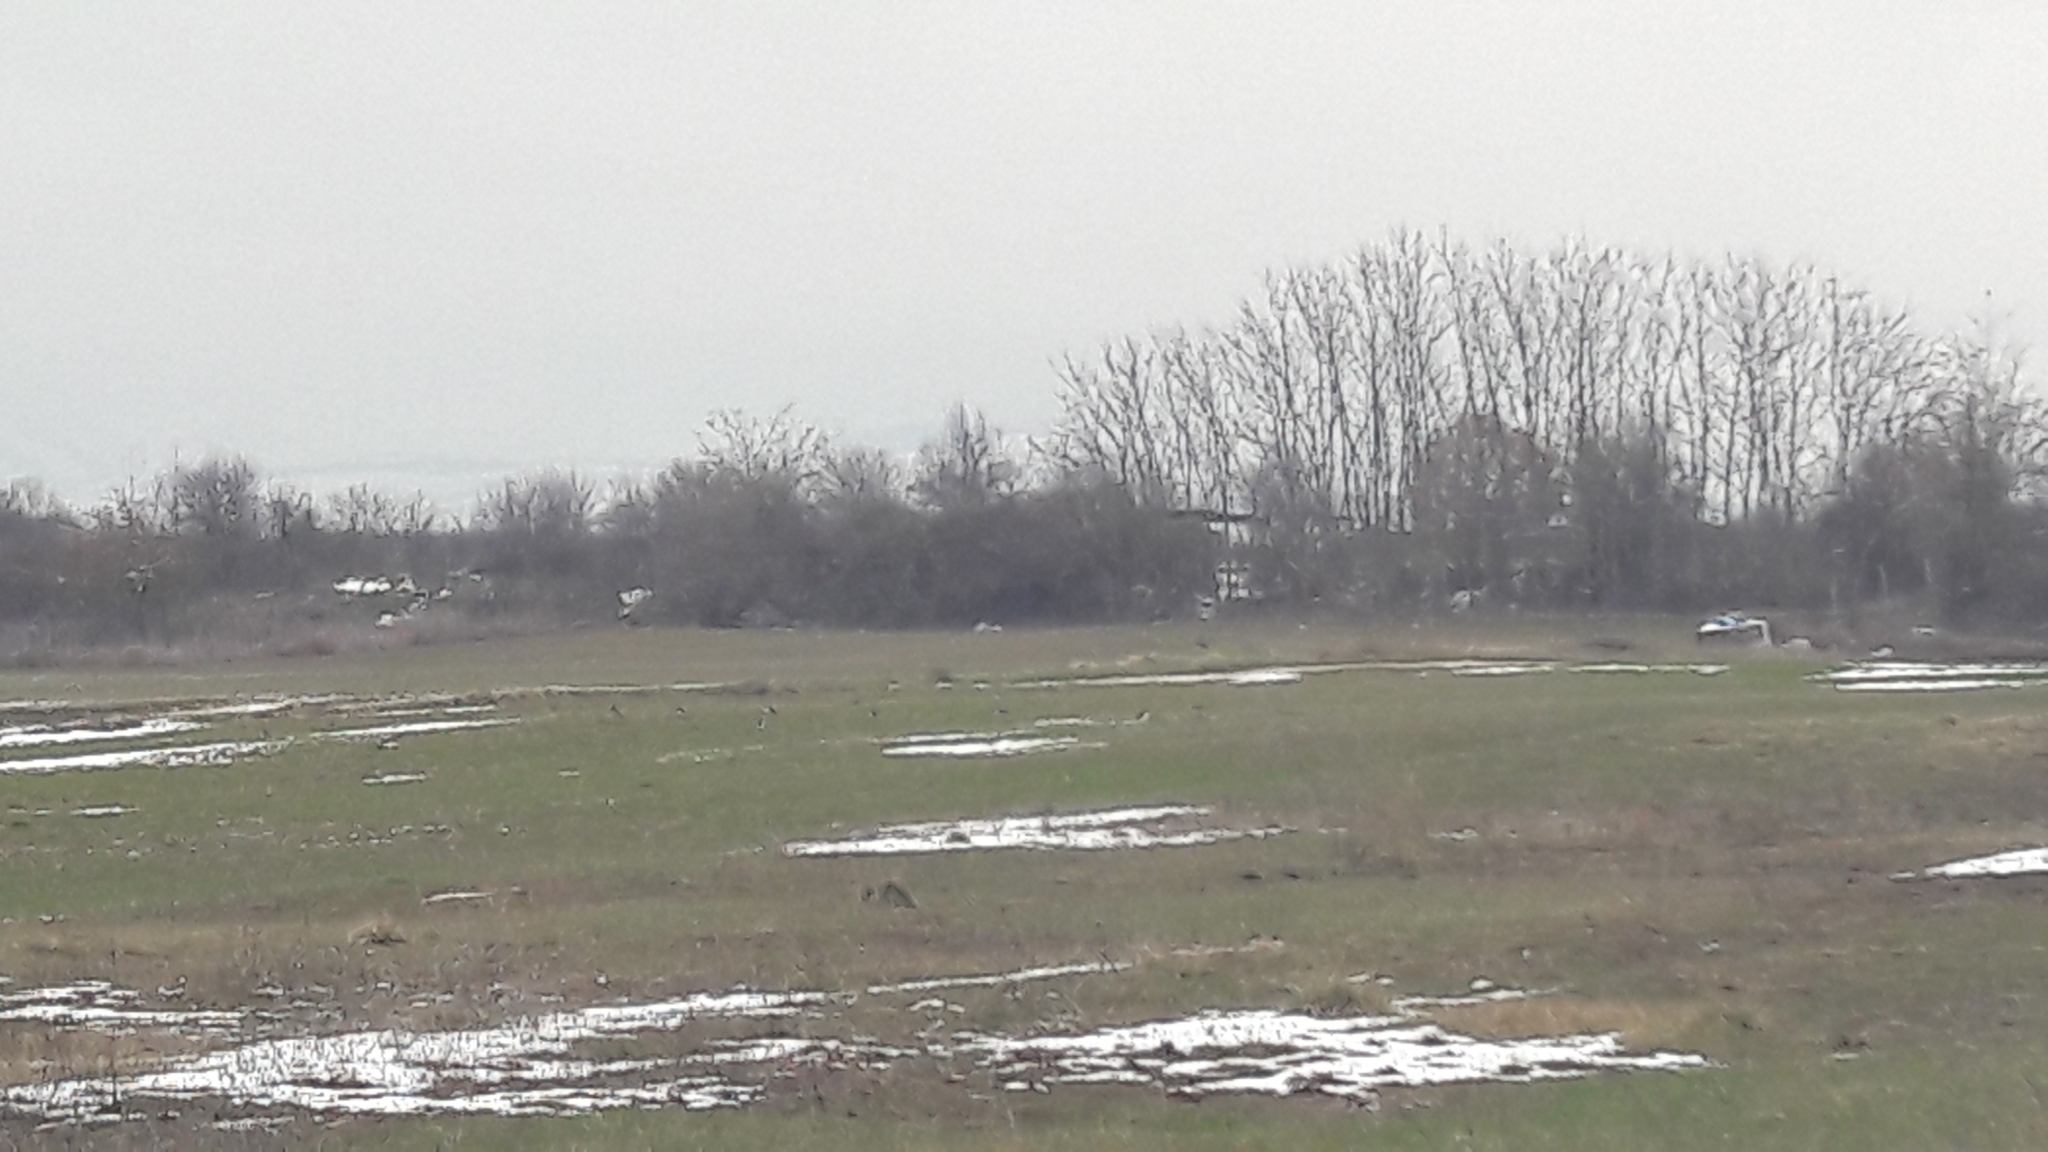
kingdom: Animalia
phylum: Chordata
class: Aves
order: Charadriiformes
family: Charadriidae
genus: Vanellus
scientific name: Vanellus vanellus
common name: Northern lapwing
